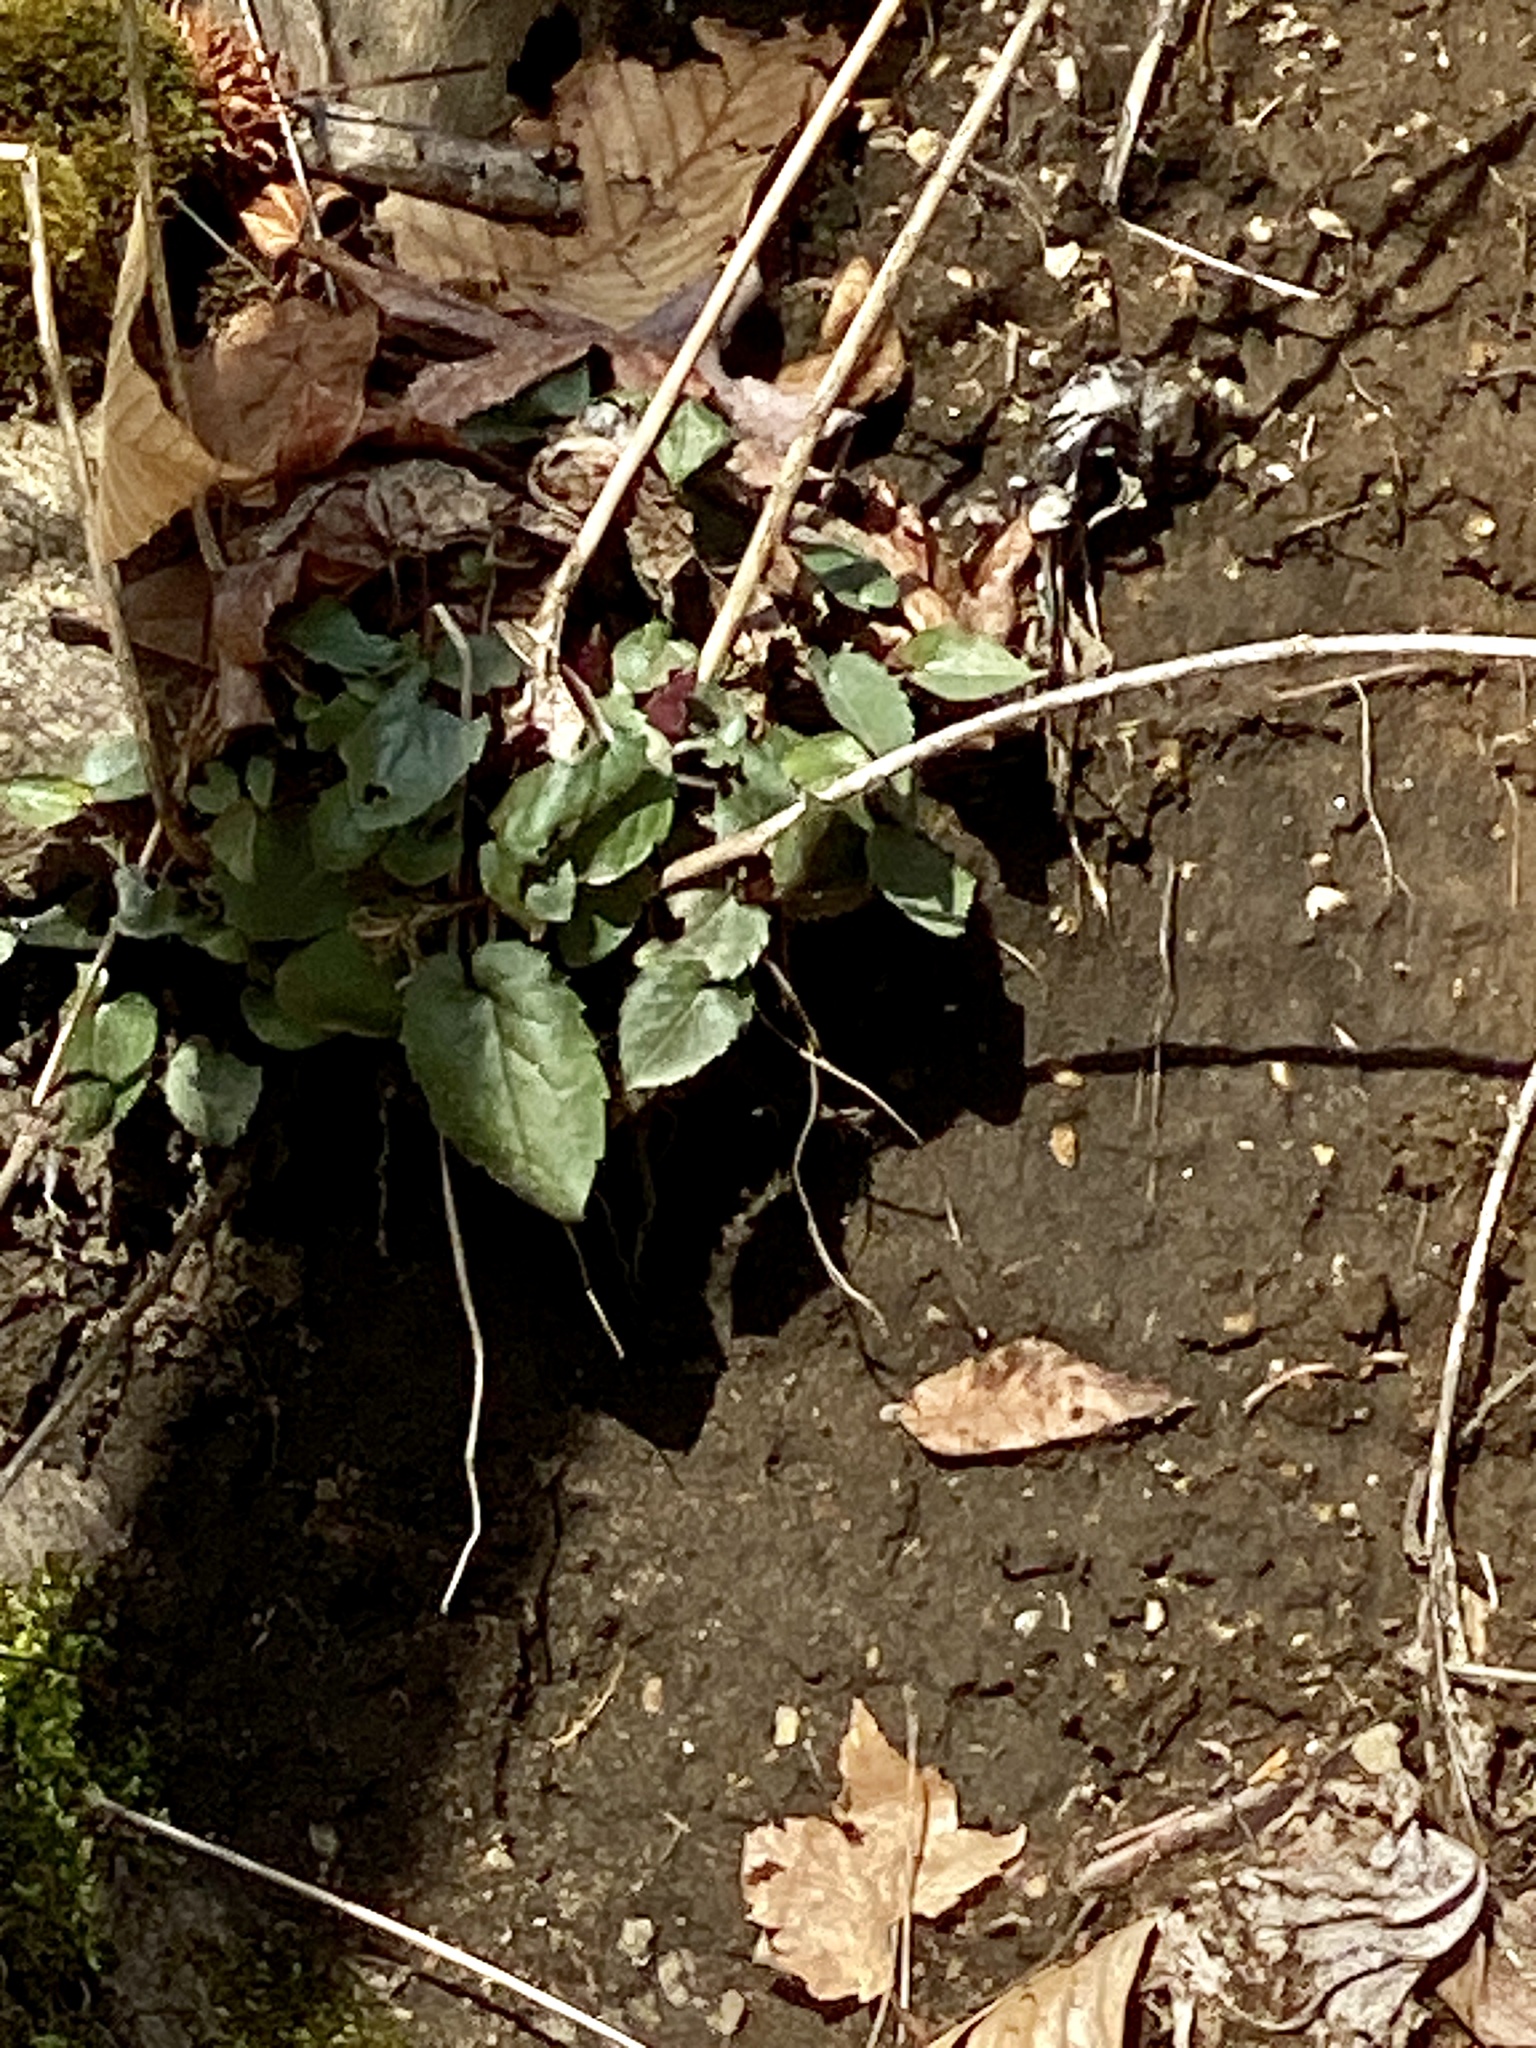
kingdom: Plantae
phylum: Tracheophyta
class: Magnoliopsida
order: Asterales
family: Asteraceae
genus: Eurybia
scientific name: Eurybia divaricata
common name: White wood aster
